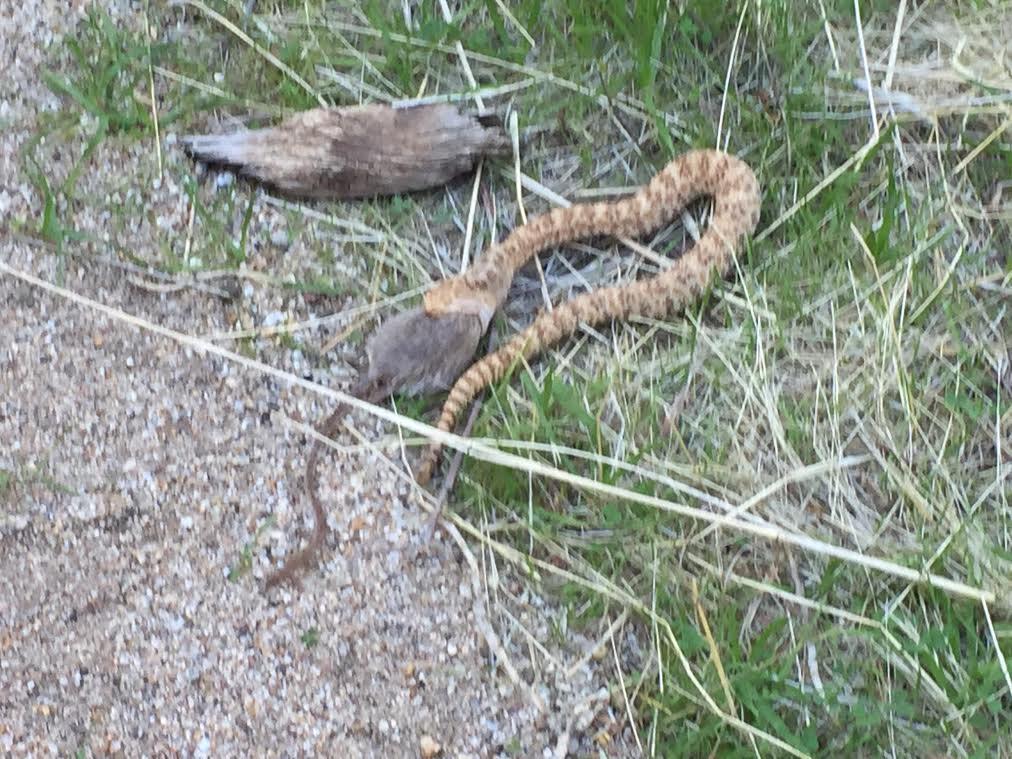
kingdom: Animalia
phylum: Chordata
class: Squamata
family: Viperidae
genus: Crotalus
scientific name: Crotalus pyrrhus
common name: Southwestern speckled rattlesnake
